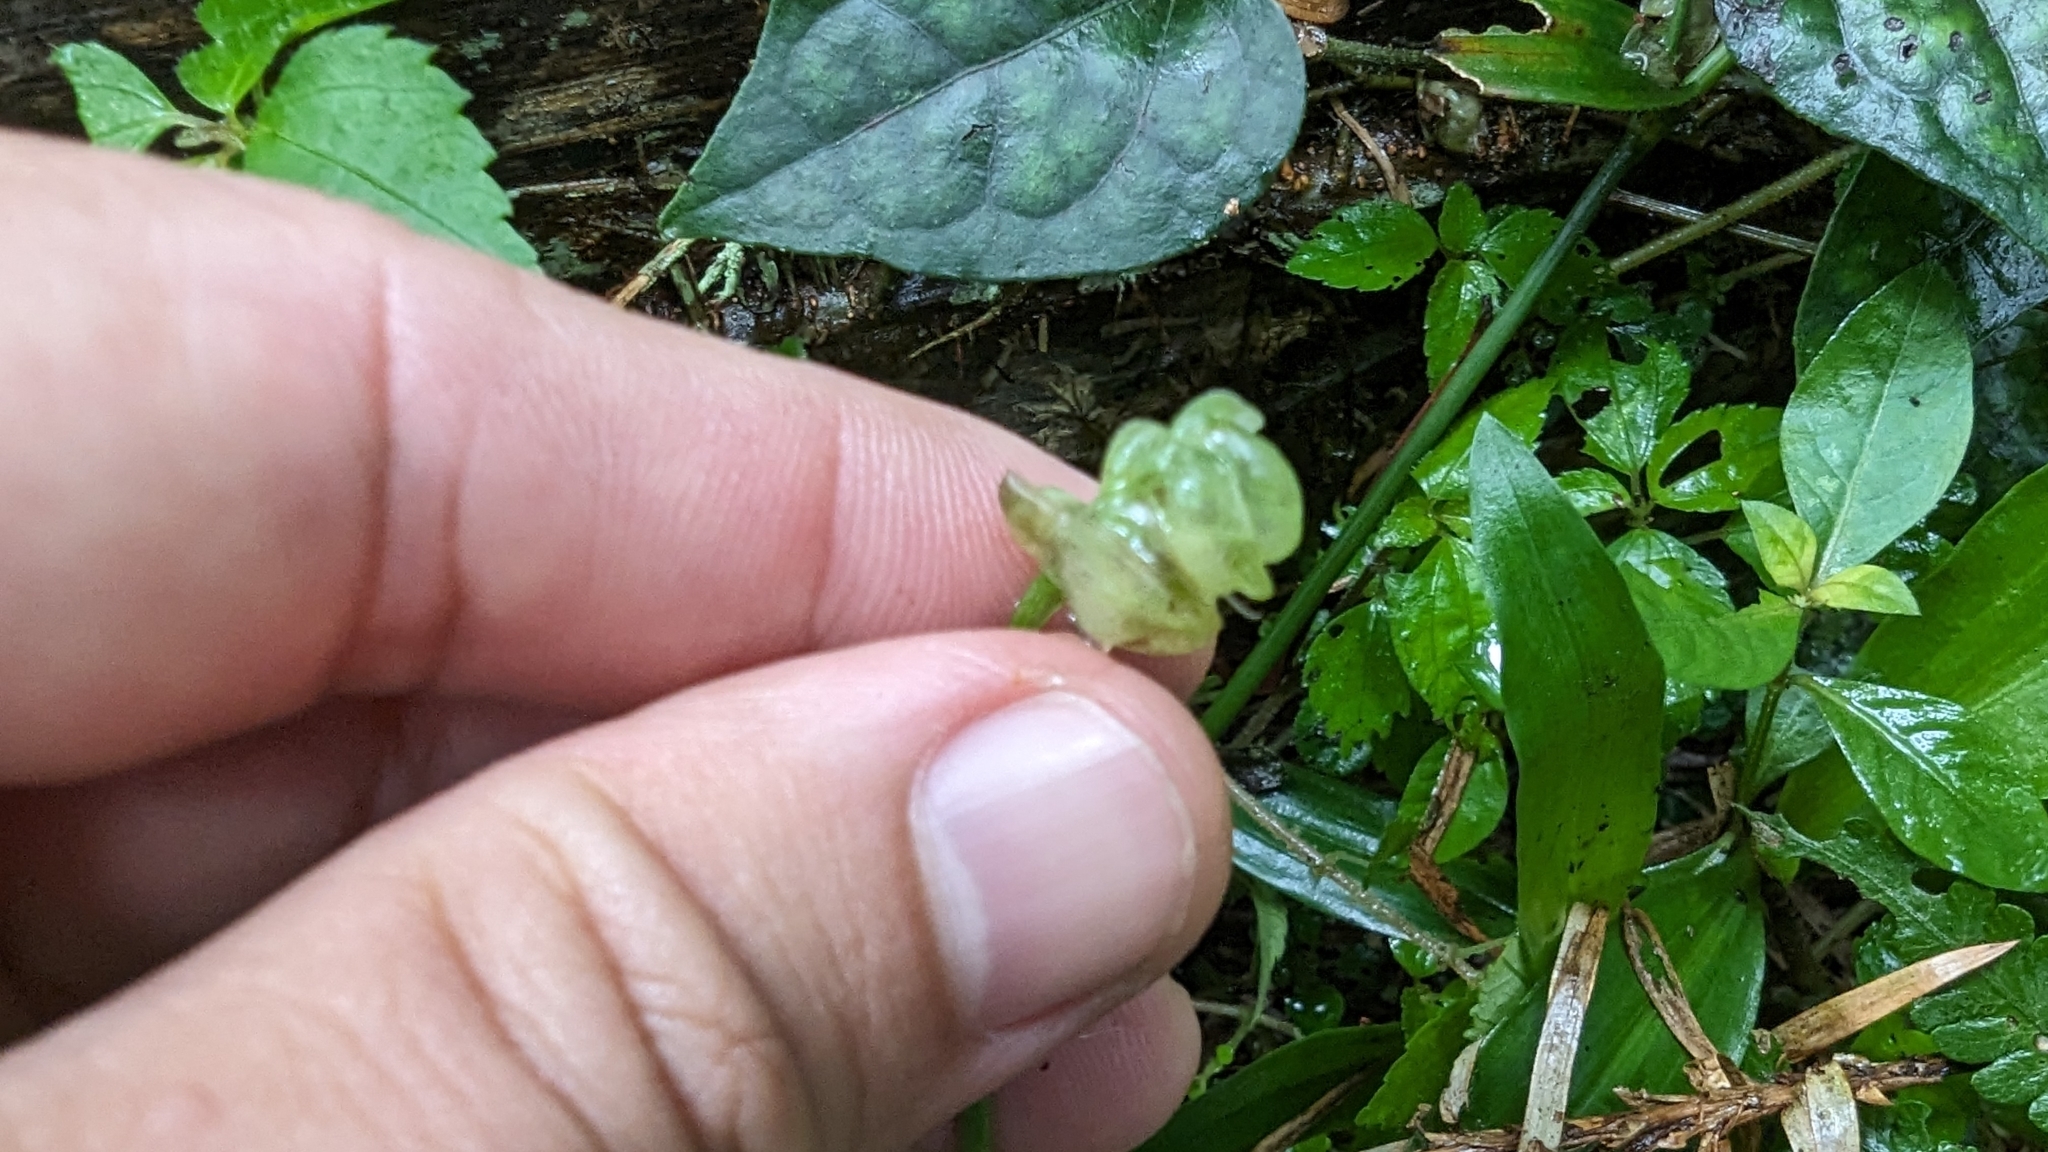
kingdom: Plantae
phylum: Tracheophyta
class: Liliopsida
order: Commelinales
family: Commelinaceae
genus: Murdannia
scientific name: Murdannia bracteata
